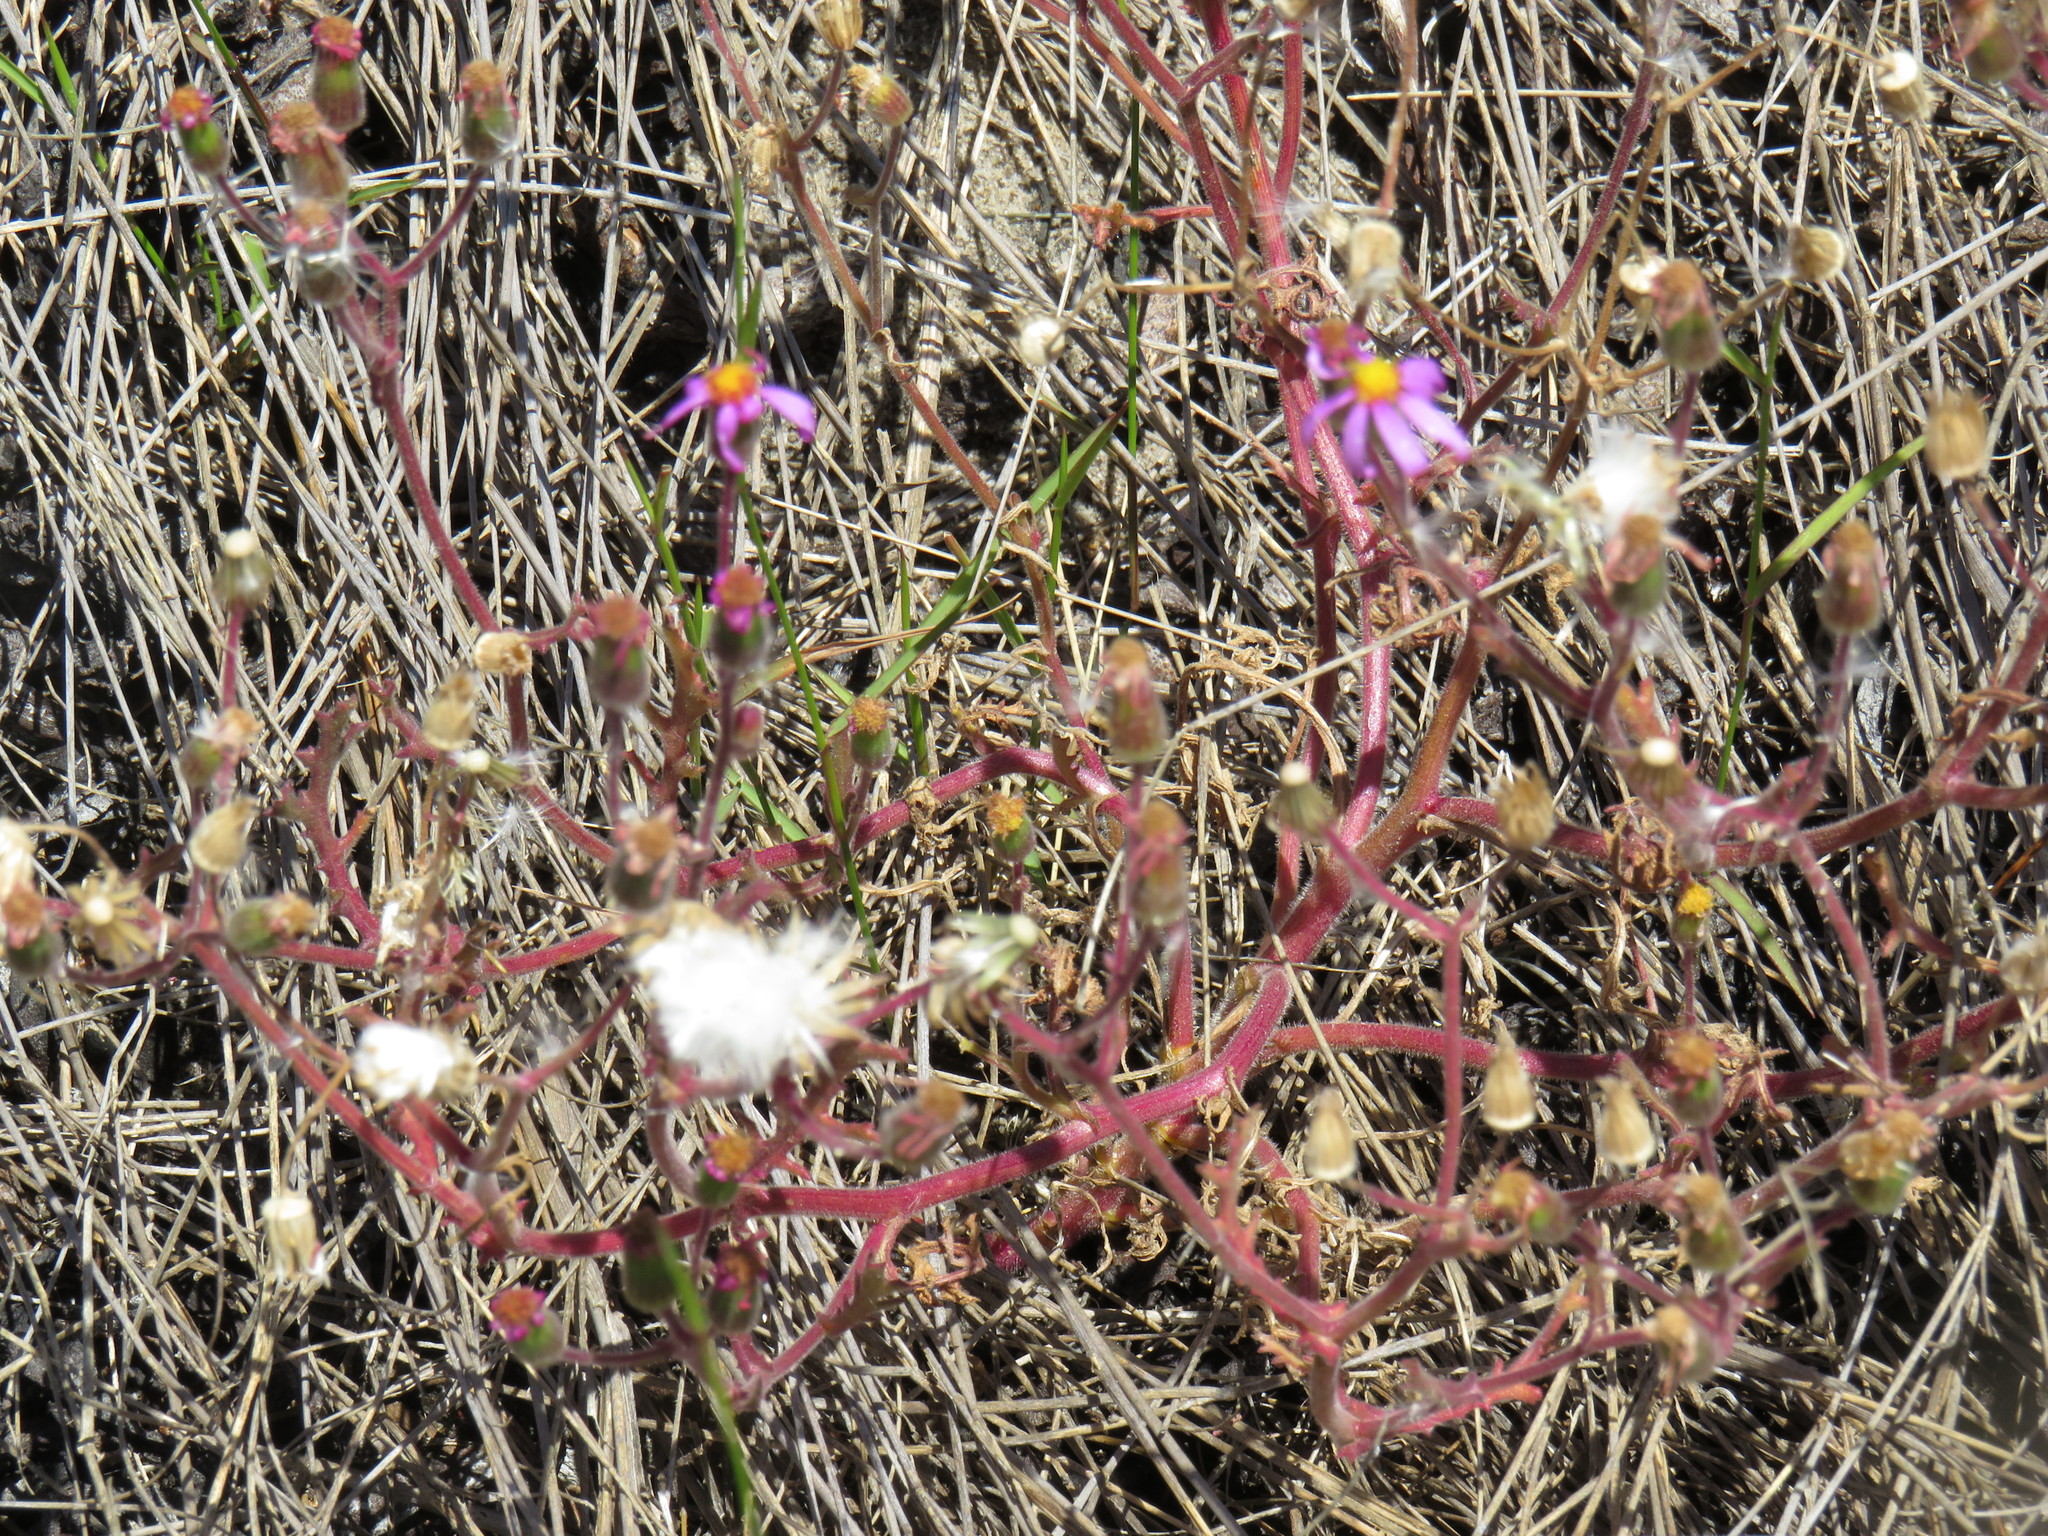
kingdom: Plantae
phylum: Tracheophyta
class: Magnoliopsida
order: Asterales
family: Asteraceae
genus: Senecio
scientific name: Senecio arenarius
